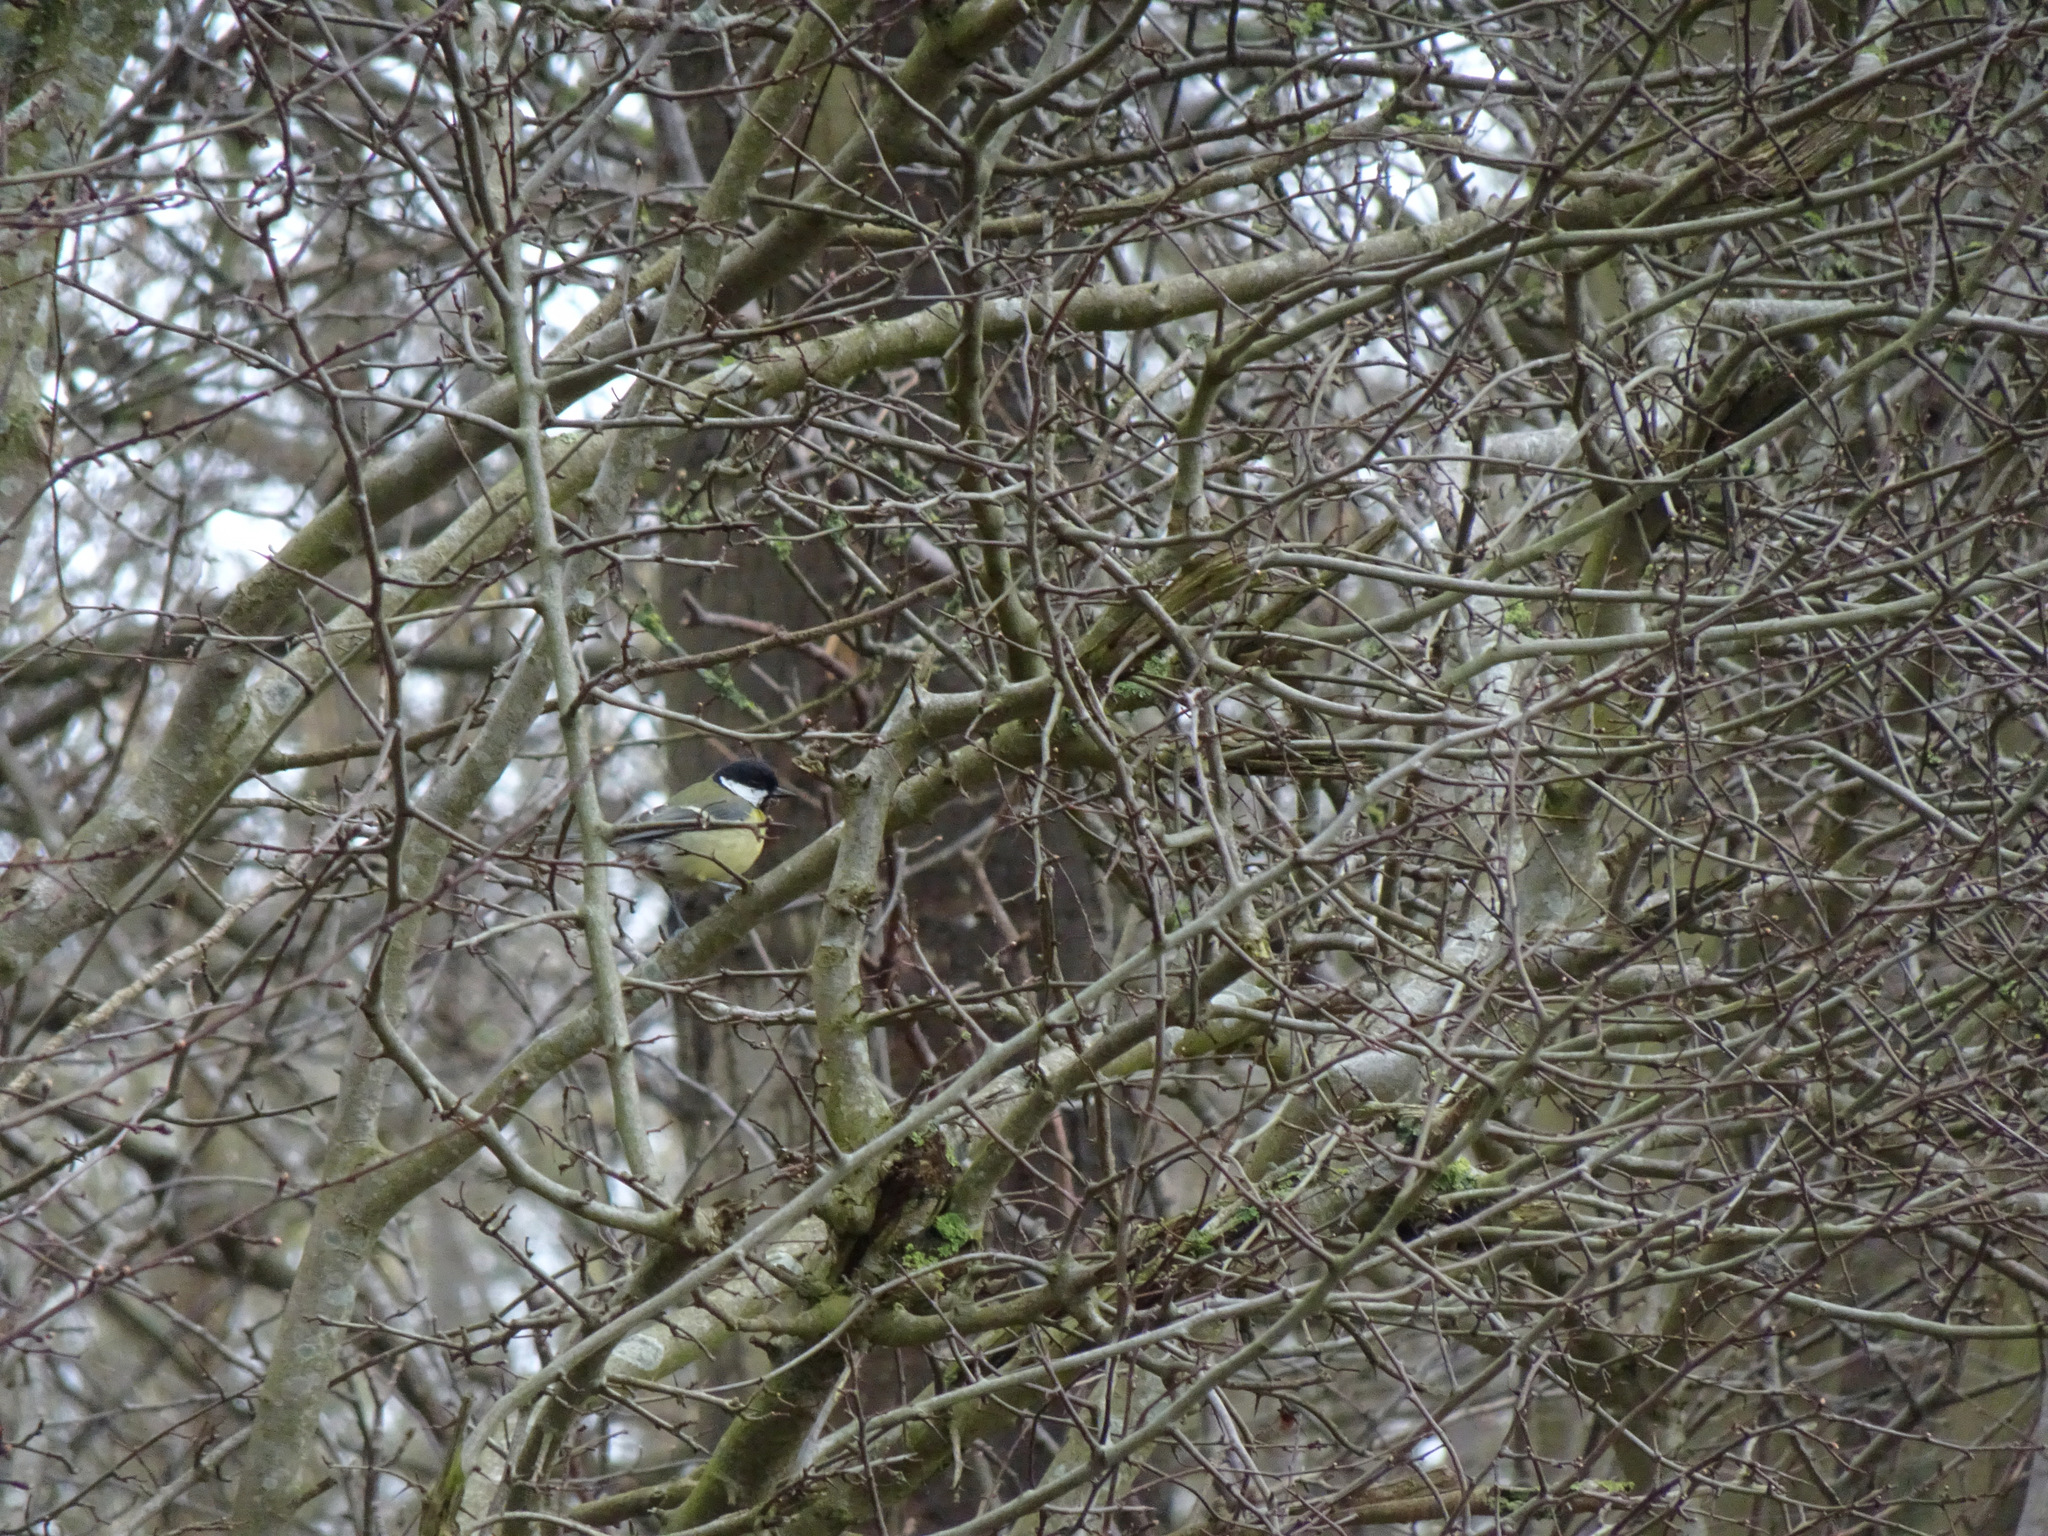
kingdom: Animalia
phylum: Chordata
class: Aves
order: Passeriformes
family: Paridae
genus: Parus
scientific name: Parus major
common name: Great tit
